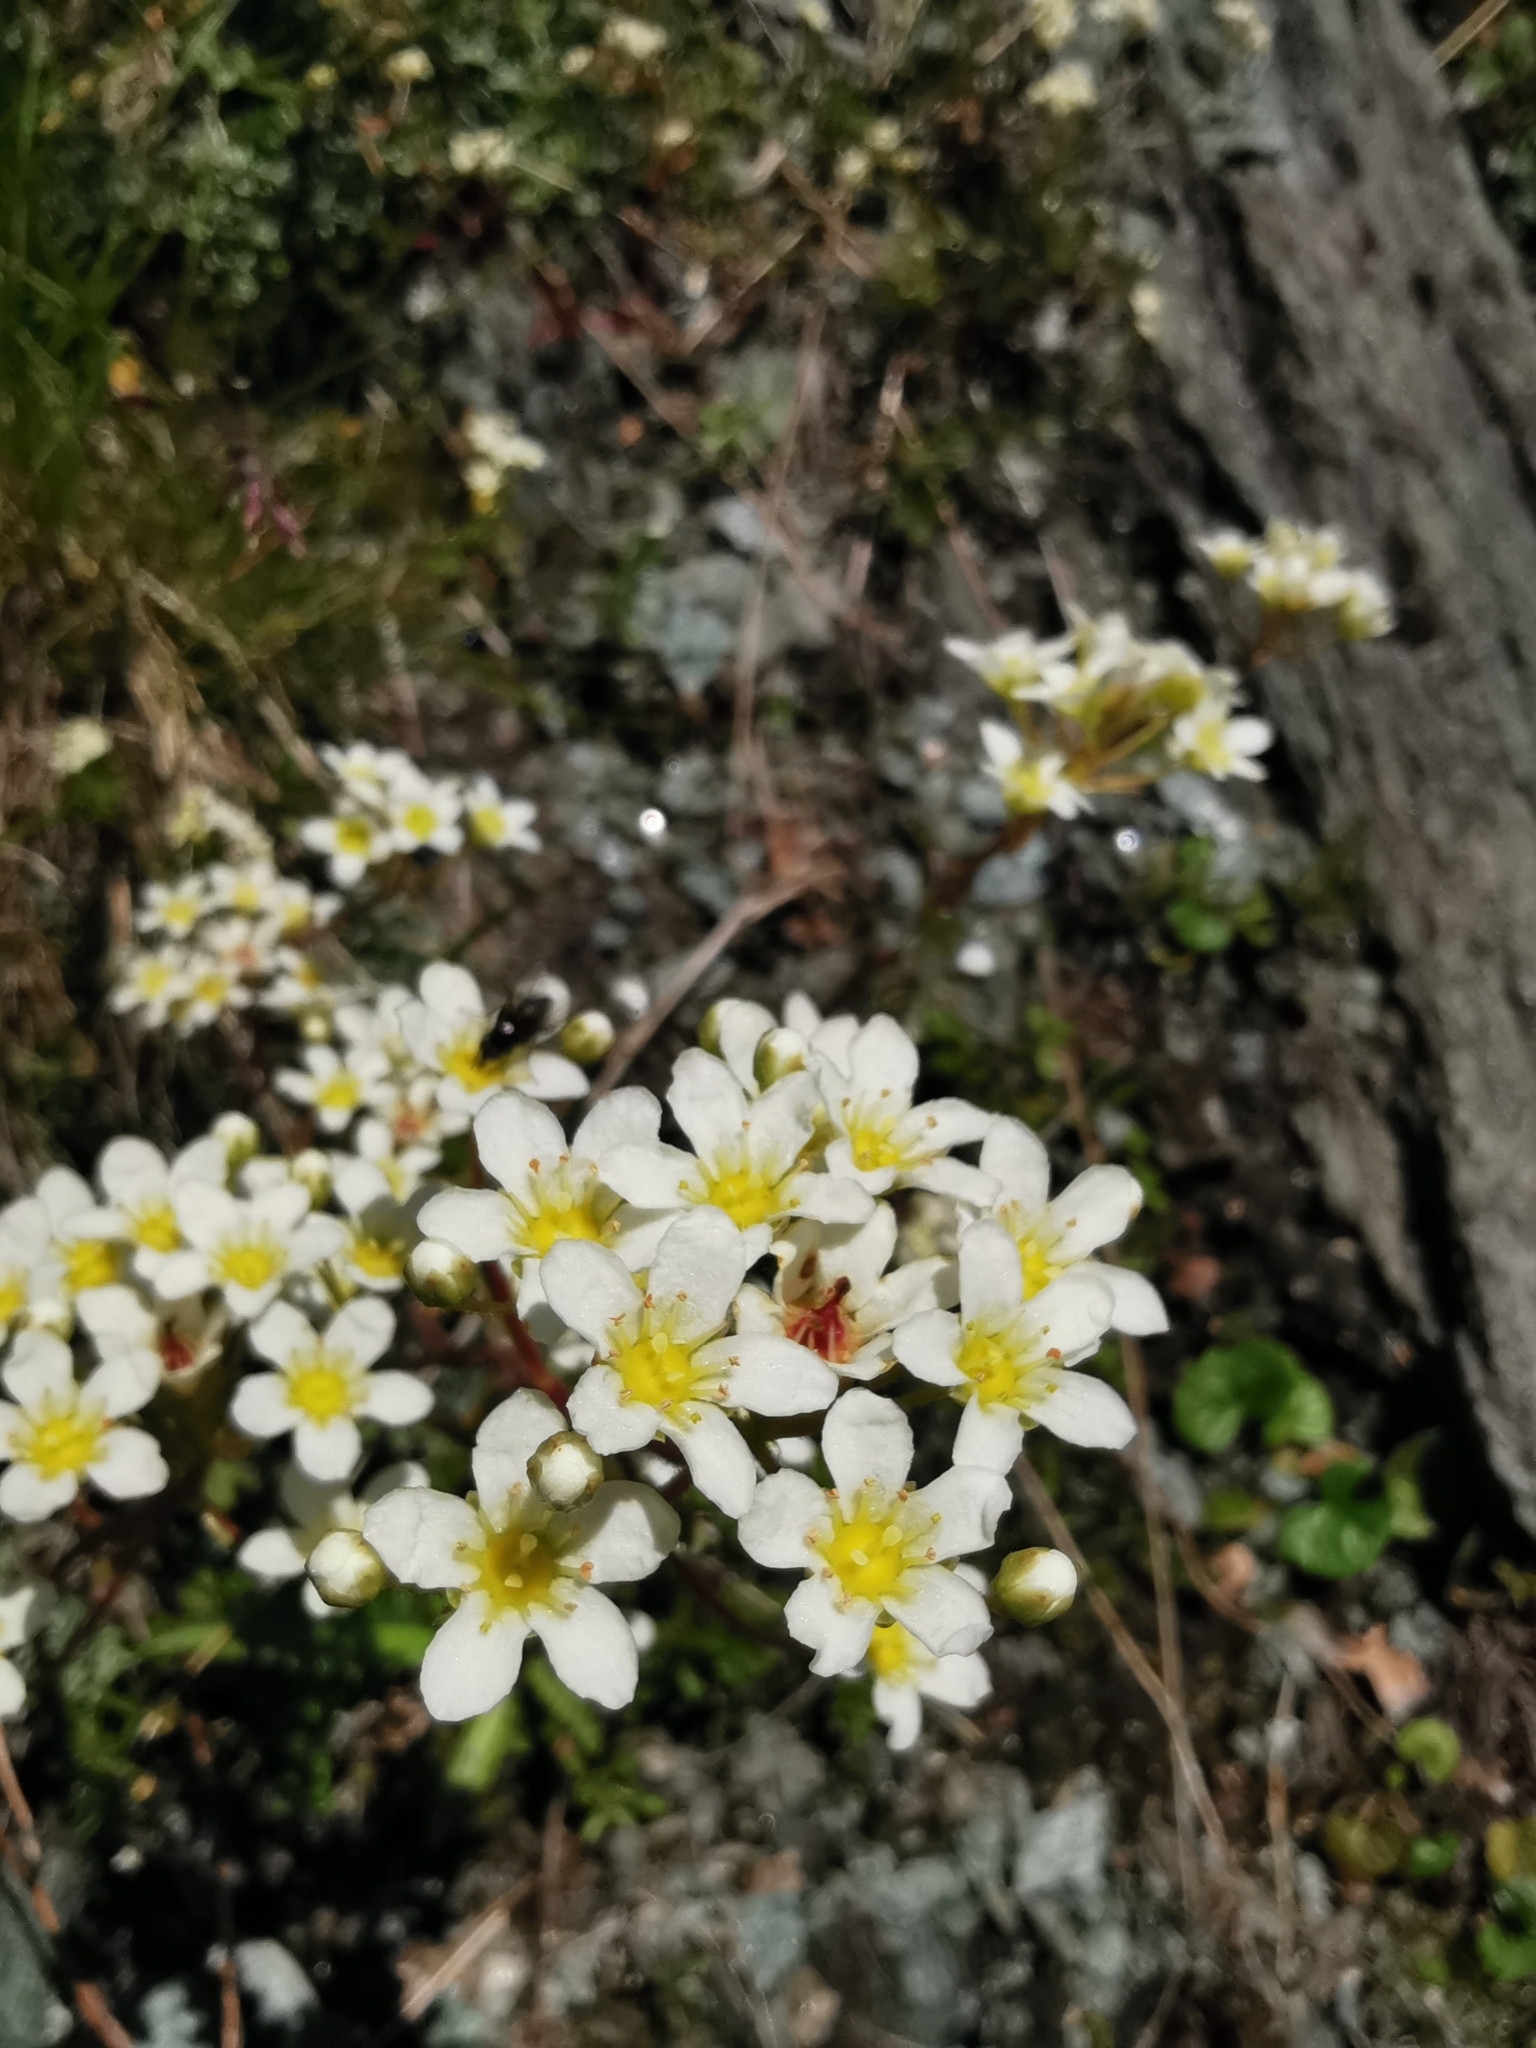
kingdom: Plantae
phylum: Tracheophyta
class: Magnoliopsida
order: Saxifragales
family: Saxifragaceae
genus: Saxifraga
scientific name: Saxifraga paniculata
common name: Livelong saxifrage
